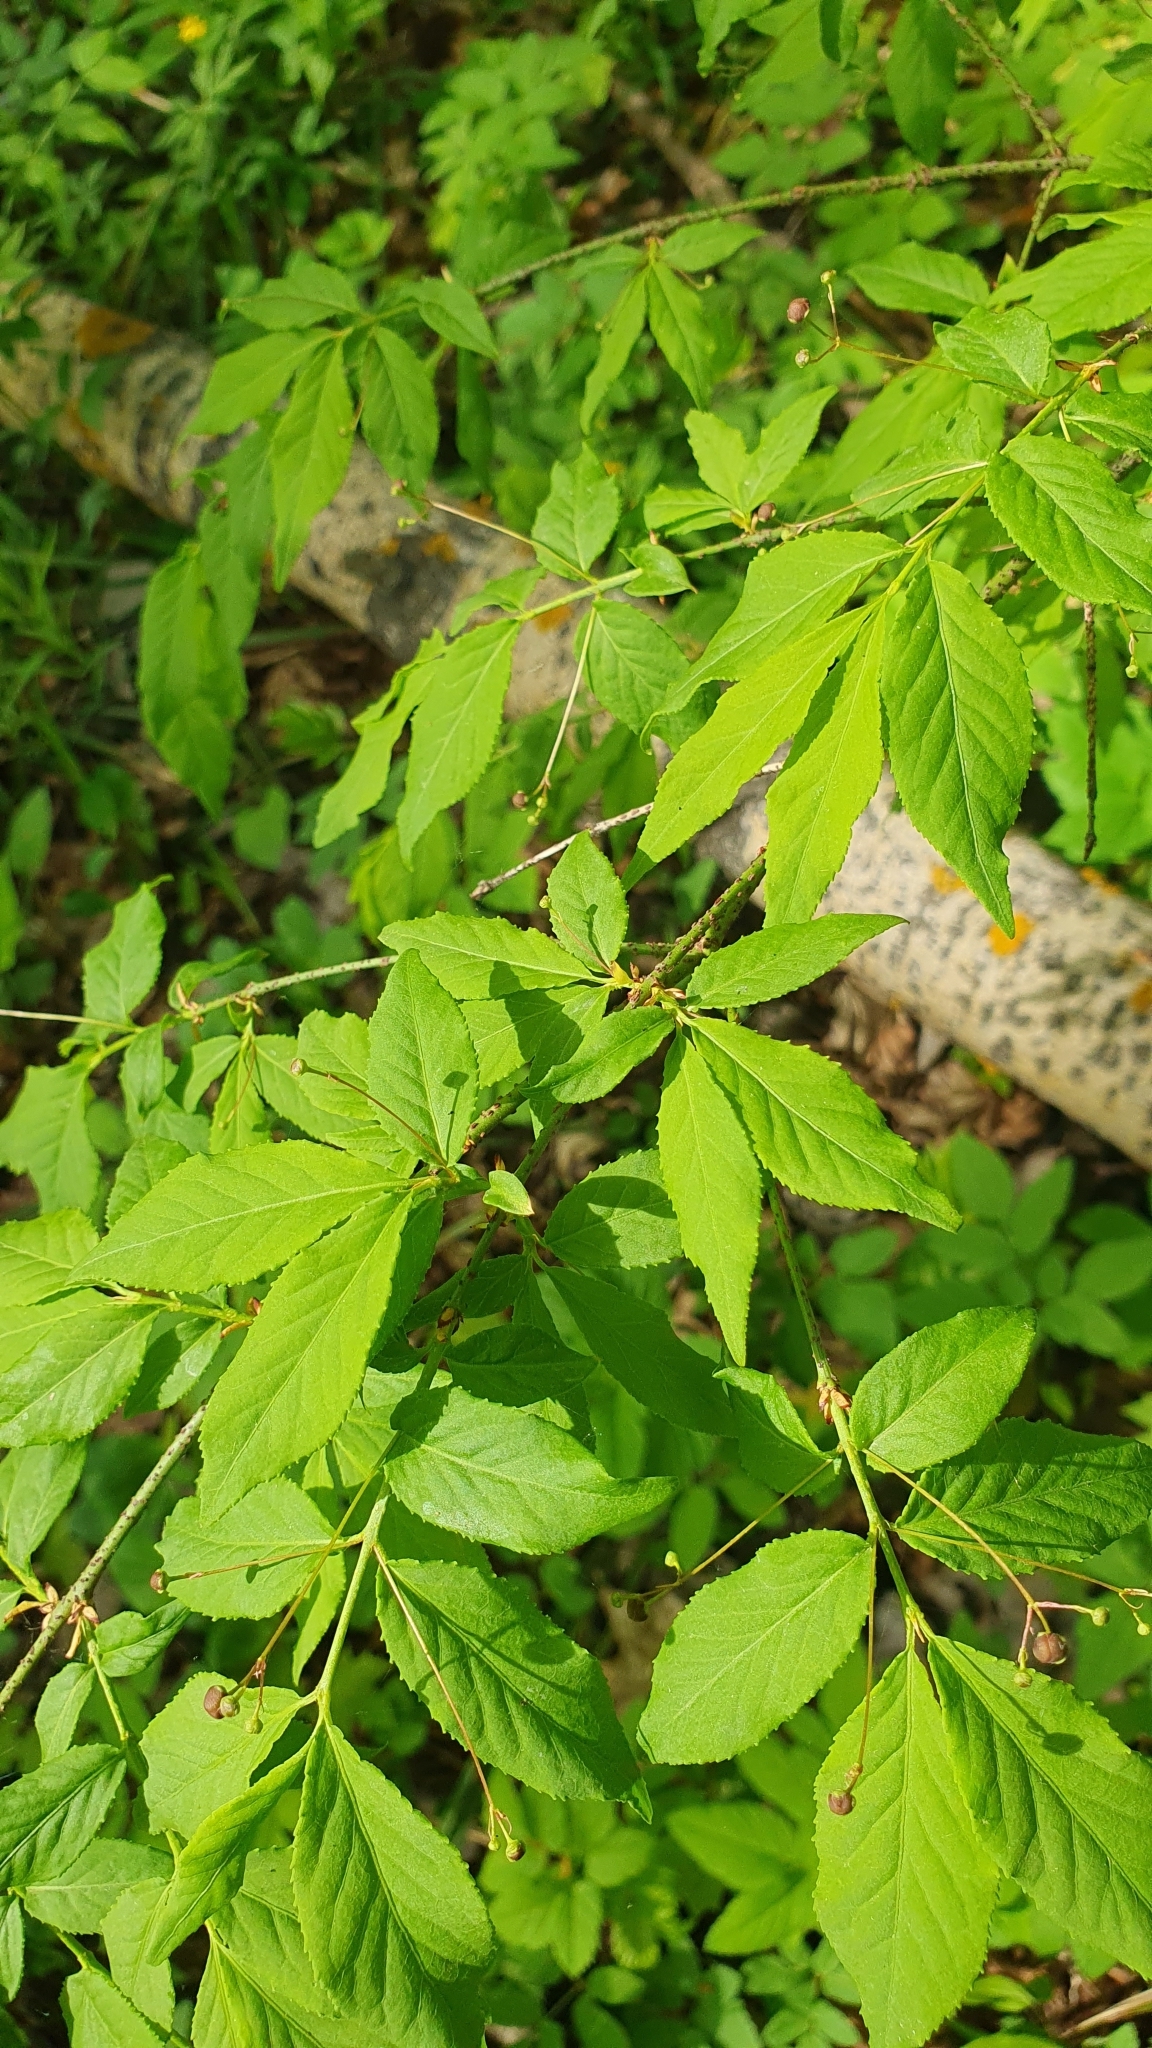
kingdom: Plantae
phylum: Tracheophyta
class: Magnoliopsida
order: Celastrales
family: Celastraceae
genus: Euonymus
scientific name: Euonymus verrucosus
